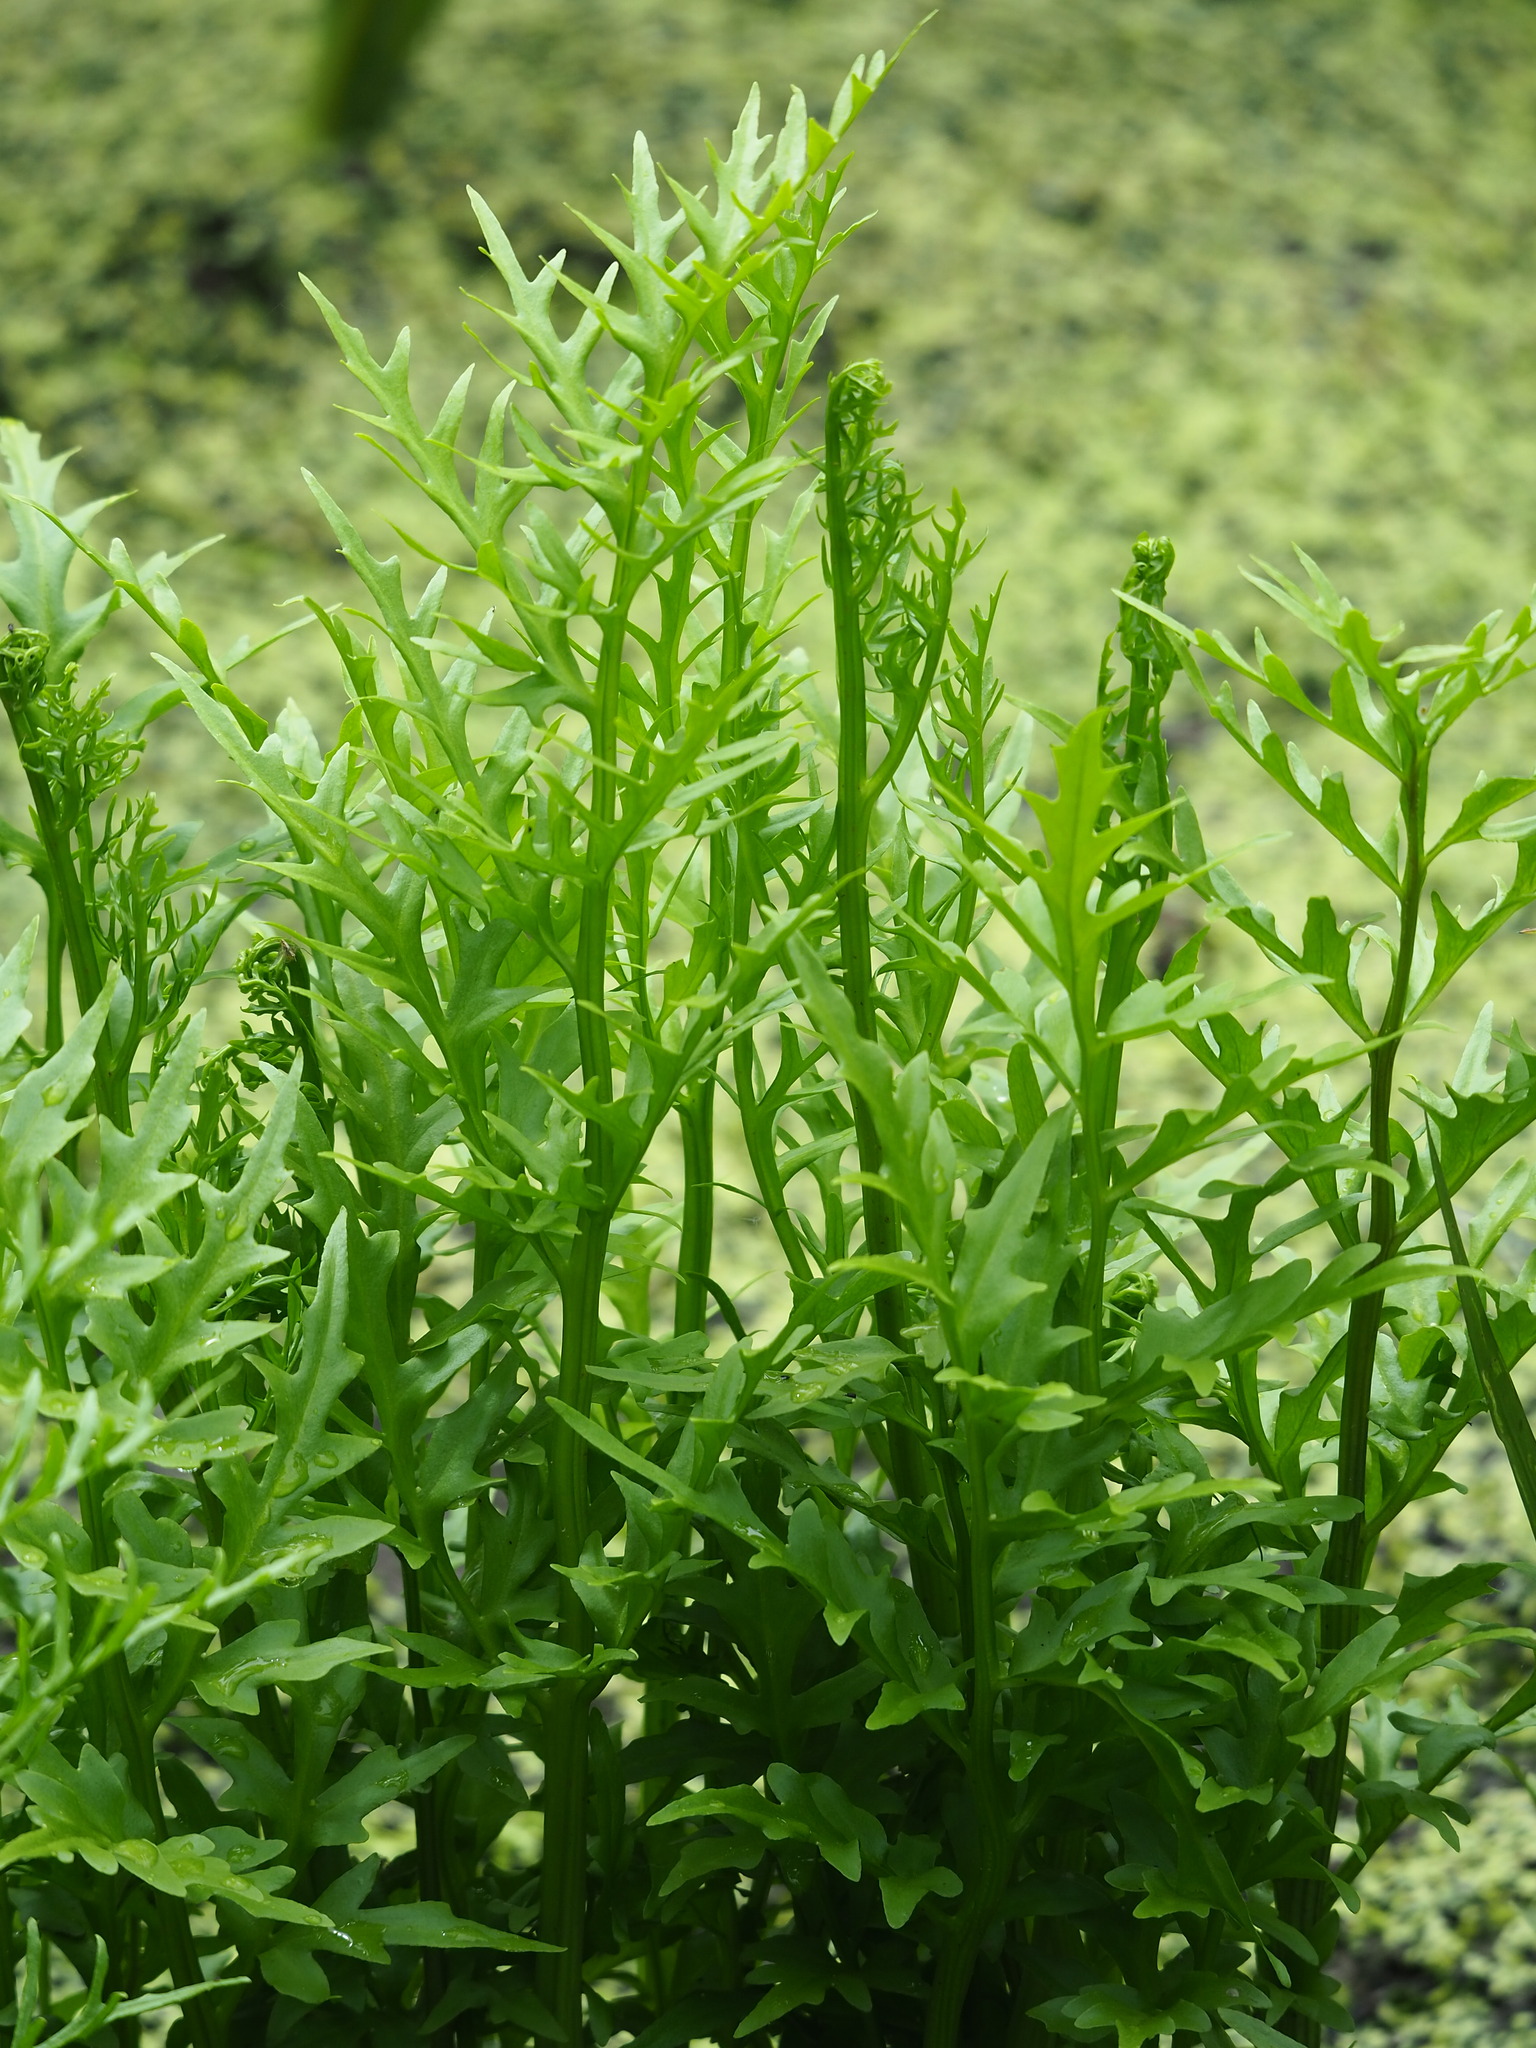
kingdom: Plantae
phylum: Tracheophyta
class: Polypodiopsida
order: Polypodiales
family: Pteridaceae
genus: Ceratopteris
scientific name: Ceratopteris thalictroides
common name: Water fern
